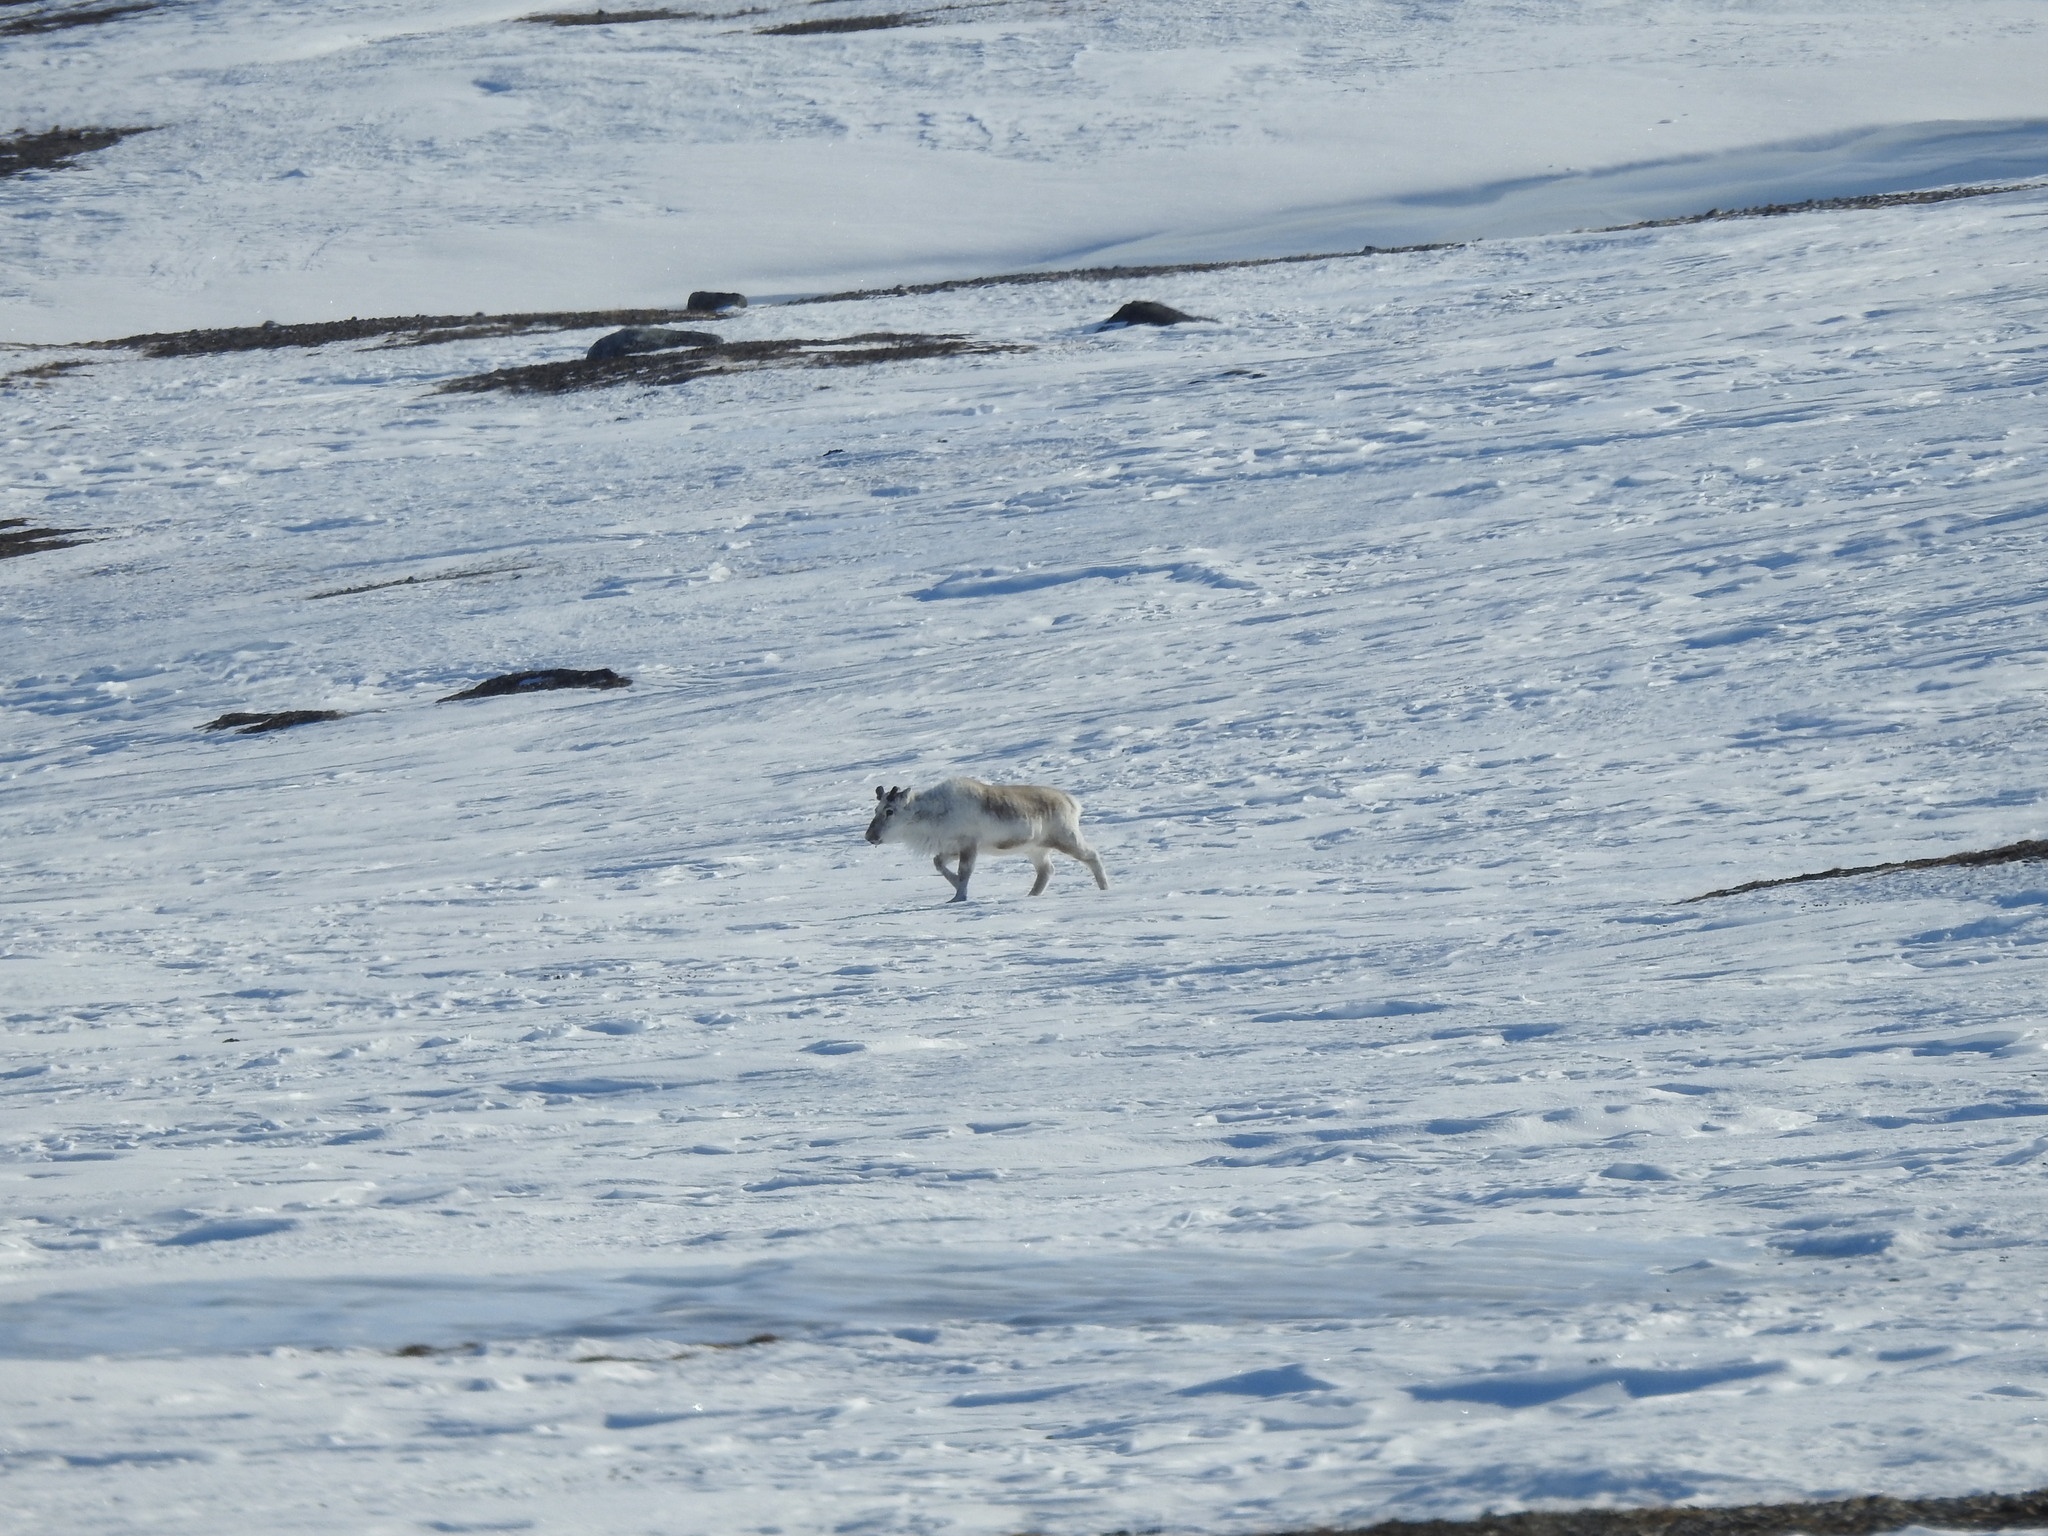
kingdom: Animalia
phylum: Chordata
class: Mammalia
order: Artiodactyla
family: Cervidae
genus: Rangifer
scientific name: Rangifer tarandus
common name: Reindeer
